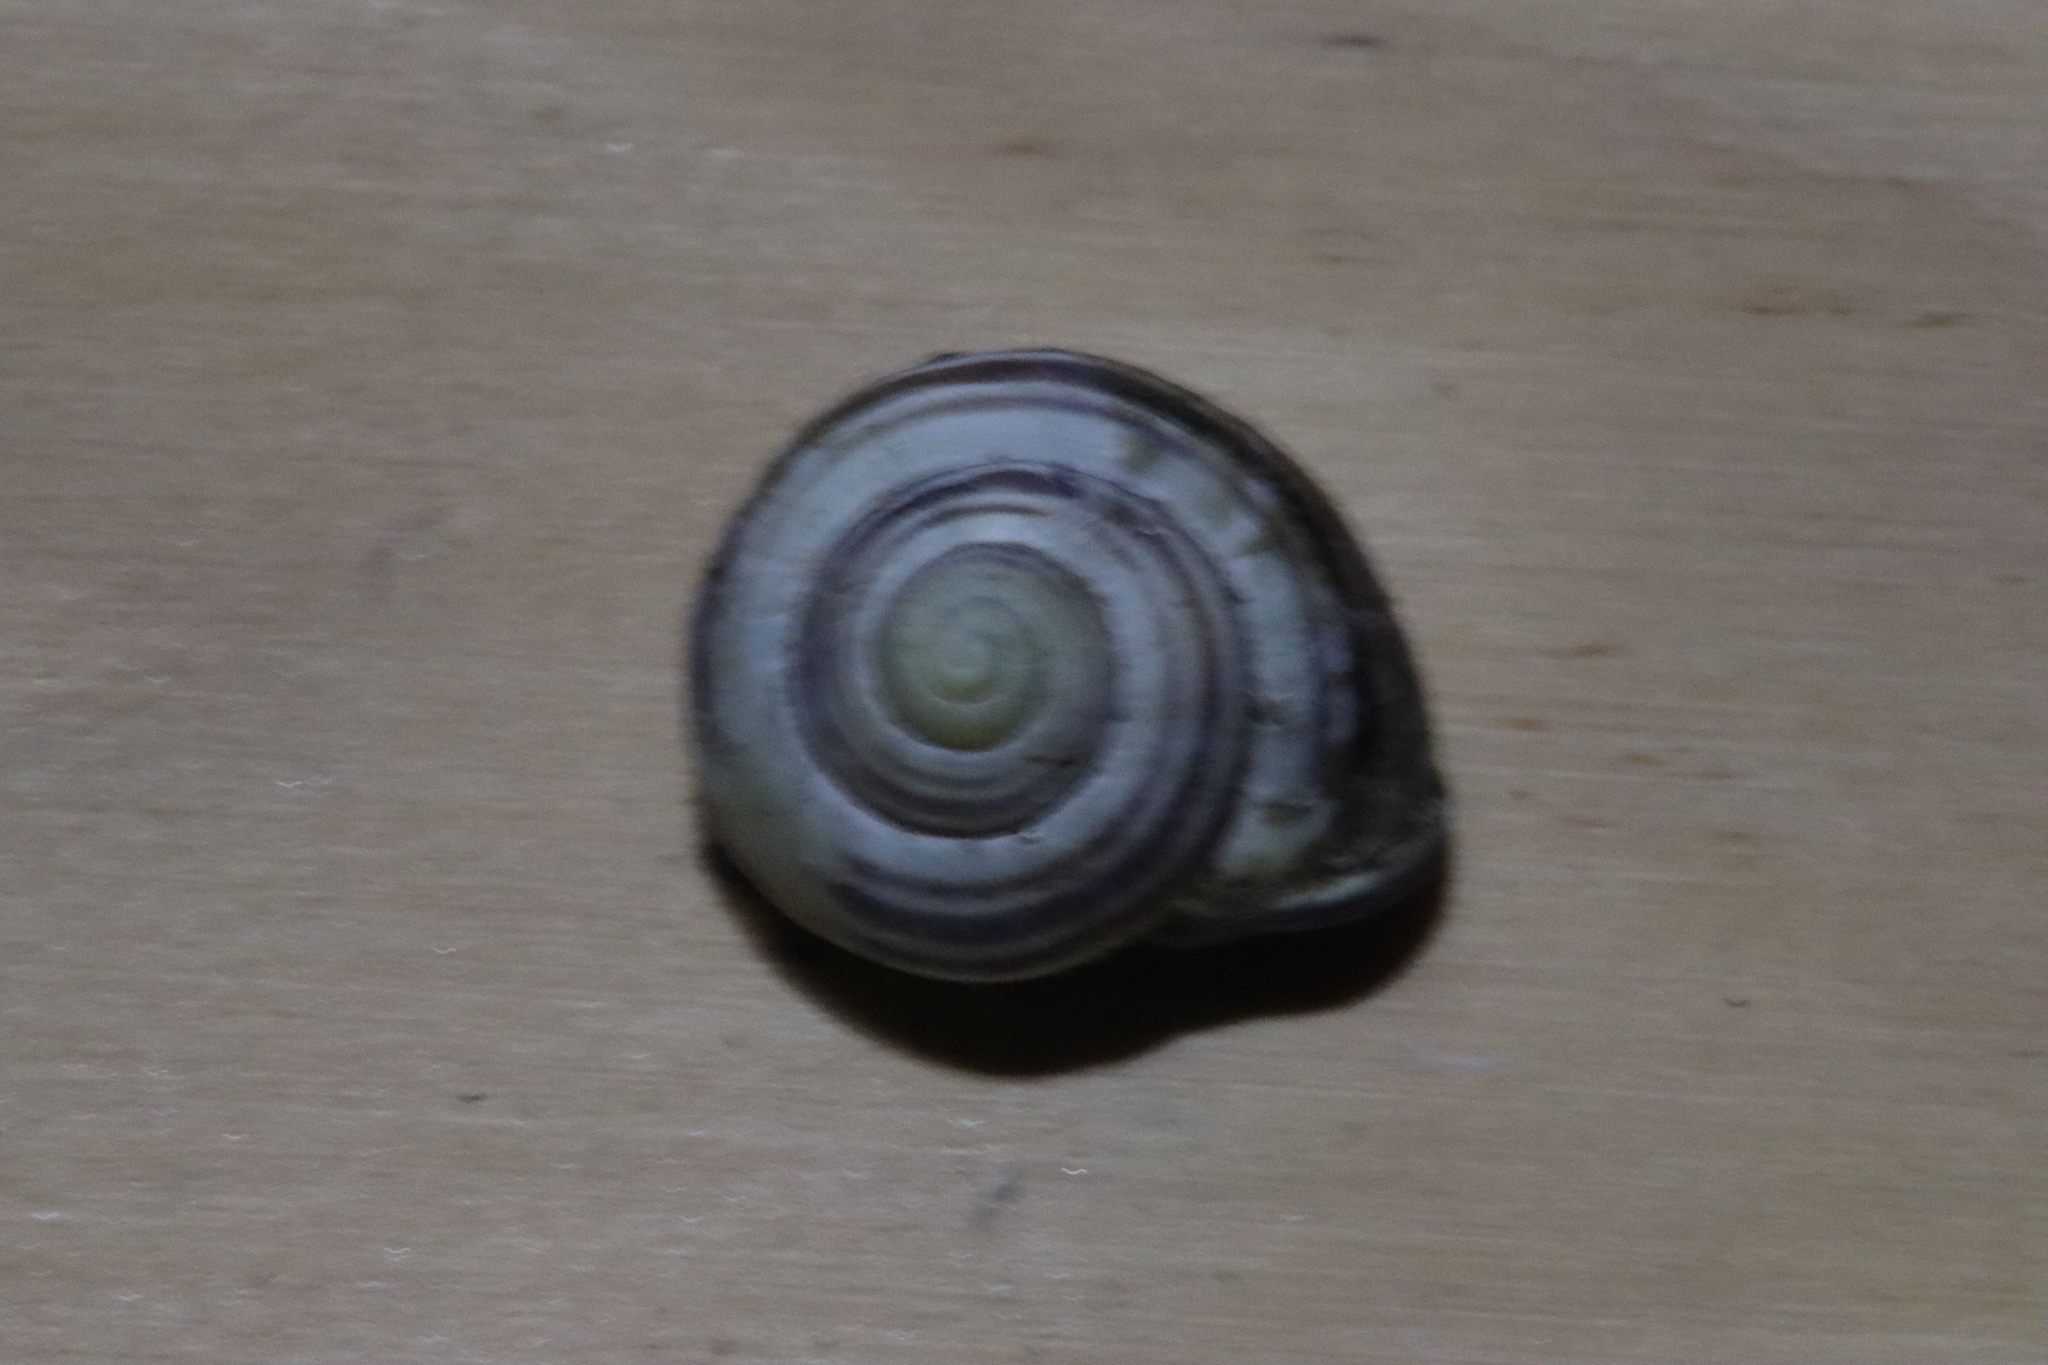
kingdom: Animalia
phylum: Mollusca
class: Gastropoda
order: Stylommatophora
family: Helicidae
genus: Cepaea
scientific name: Cepaea nemoralis
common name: Grovesnail
